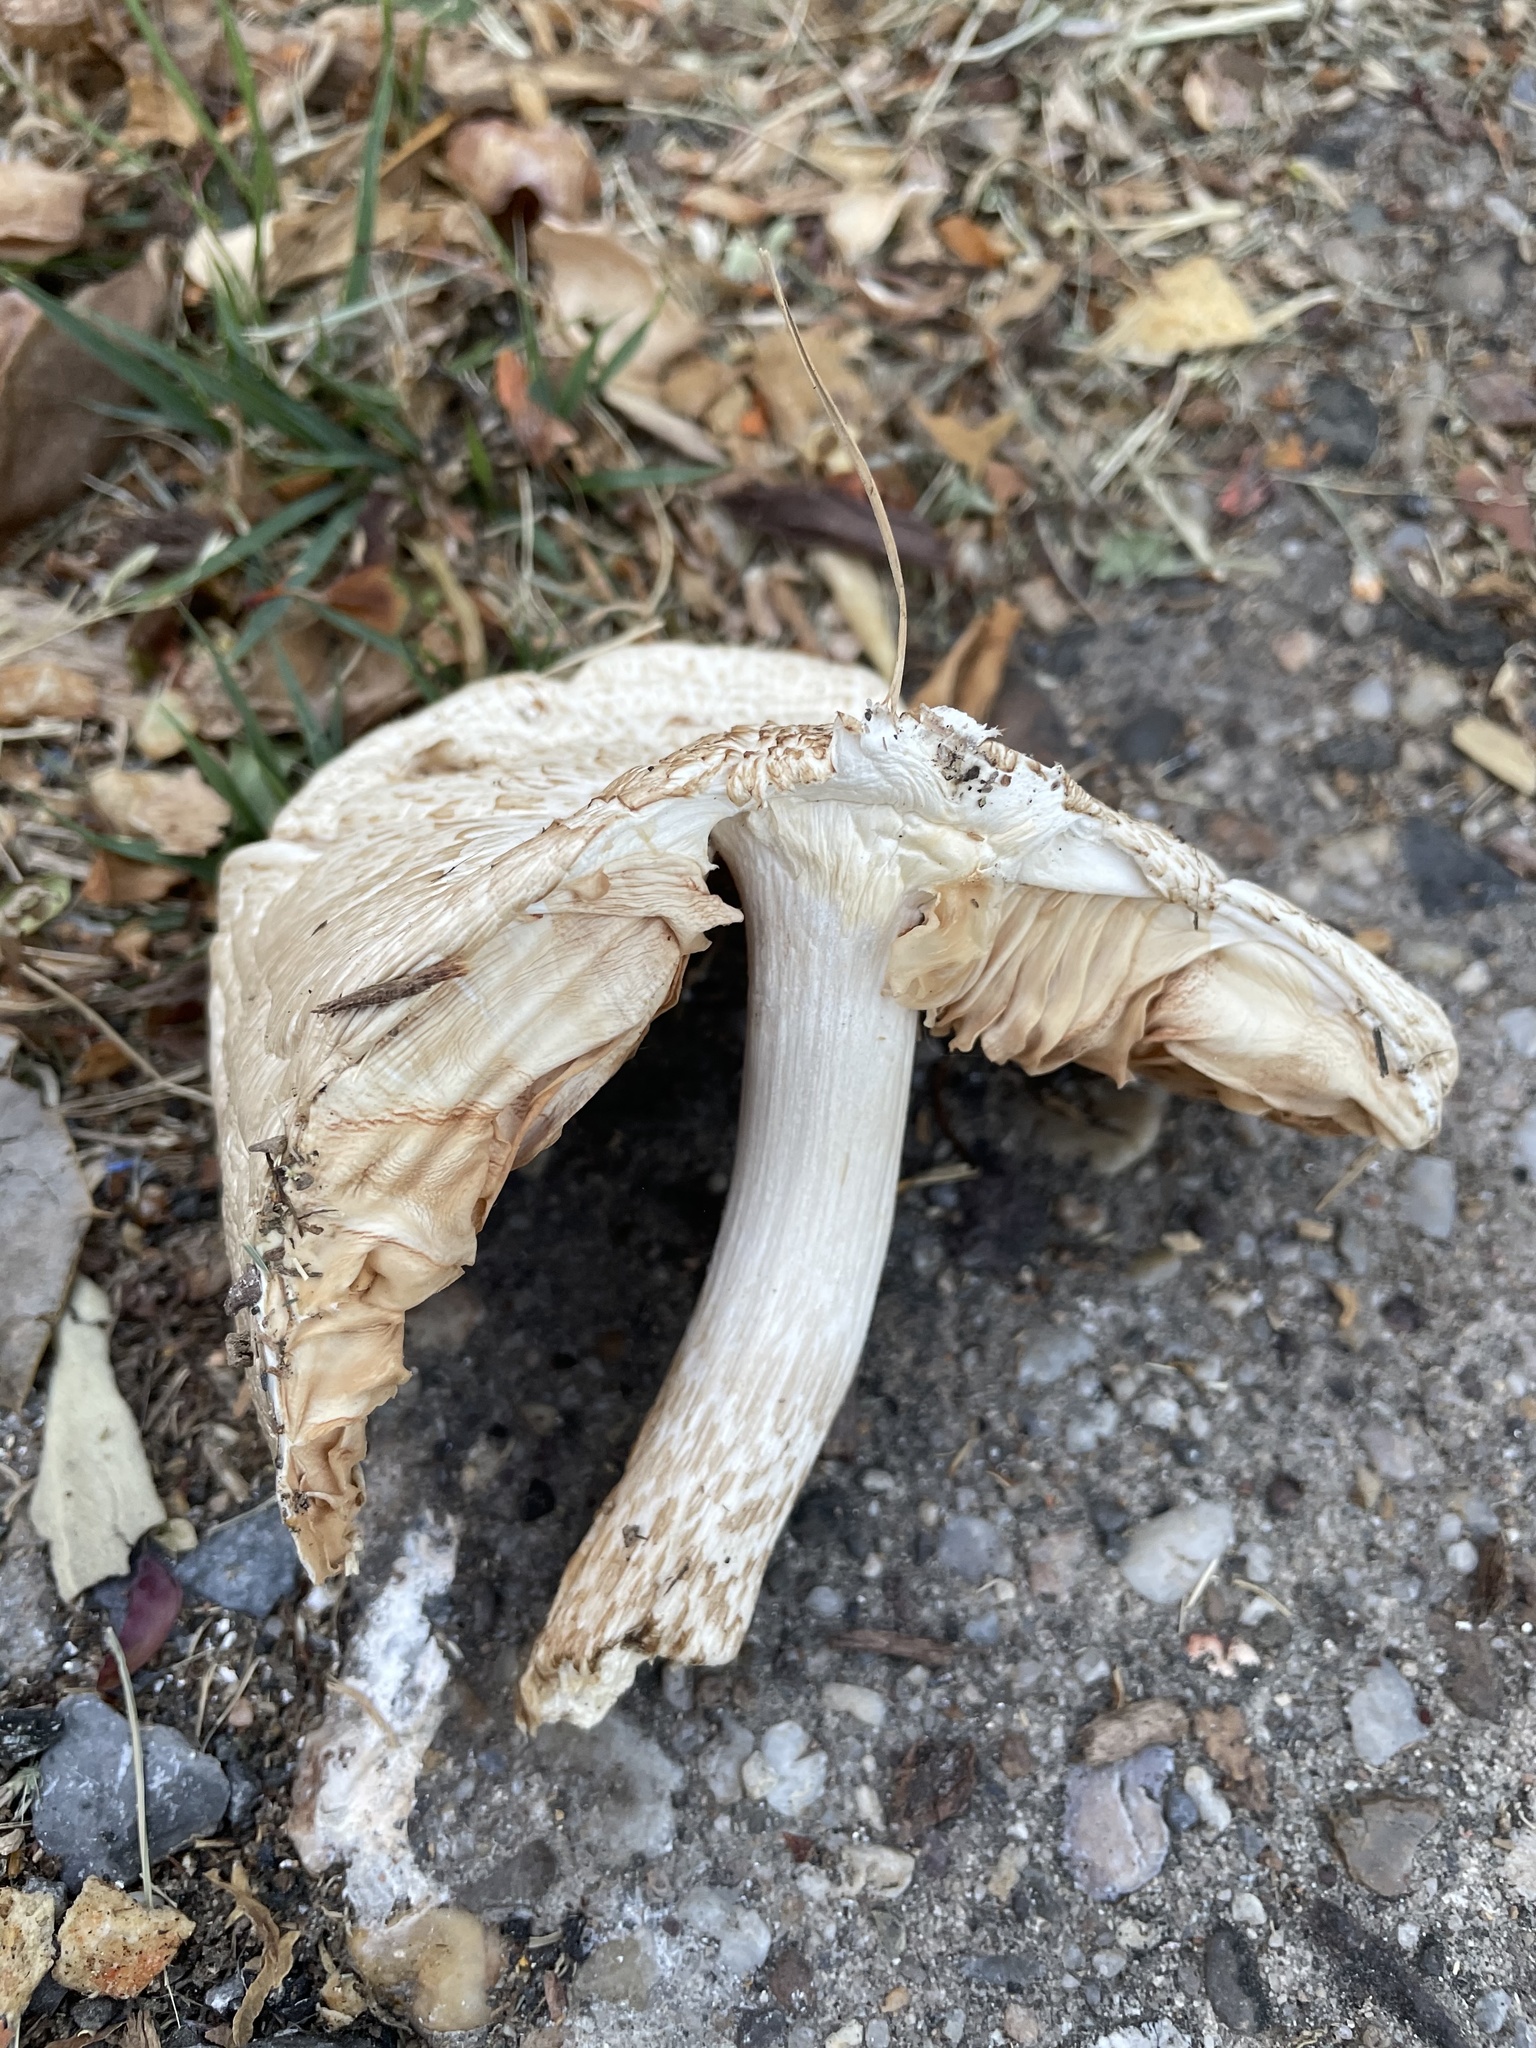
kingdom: Fungi
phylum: Basidiomycota
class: Agaricomycetes
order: Agaricales
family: Pluteaceae
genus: Pluteus
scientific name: Pluteus petasatus
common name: Scaly shield
